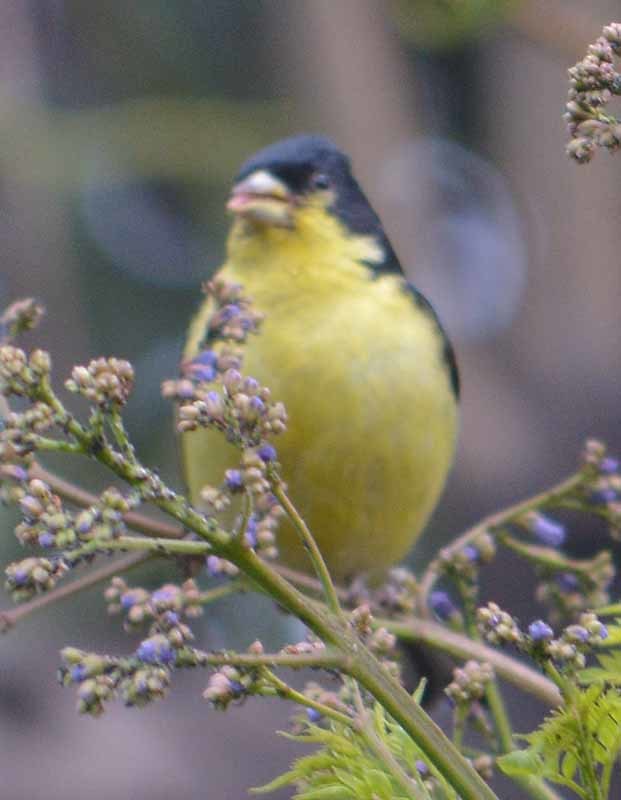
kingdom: Animalia
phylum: Chordata
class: Aves
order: Passeriformes
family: Fringillidae
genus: Spinus
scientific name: Spinus psaltria
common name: Lesser goldfinch
